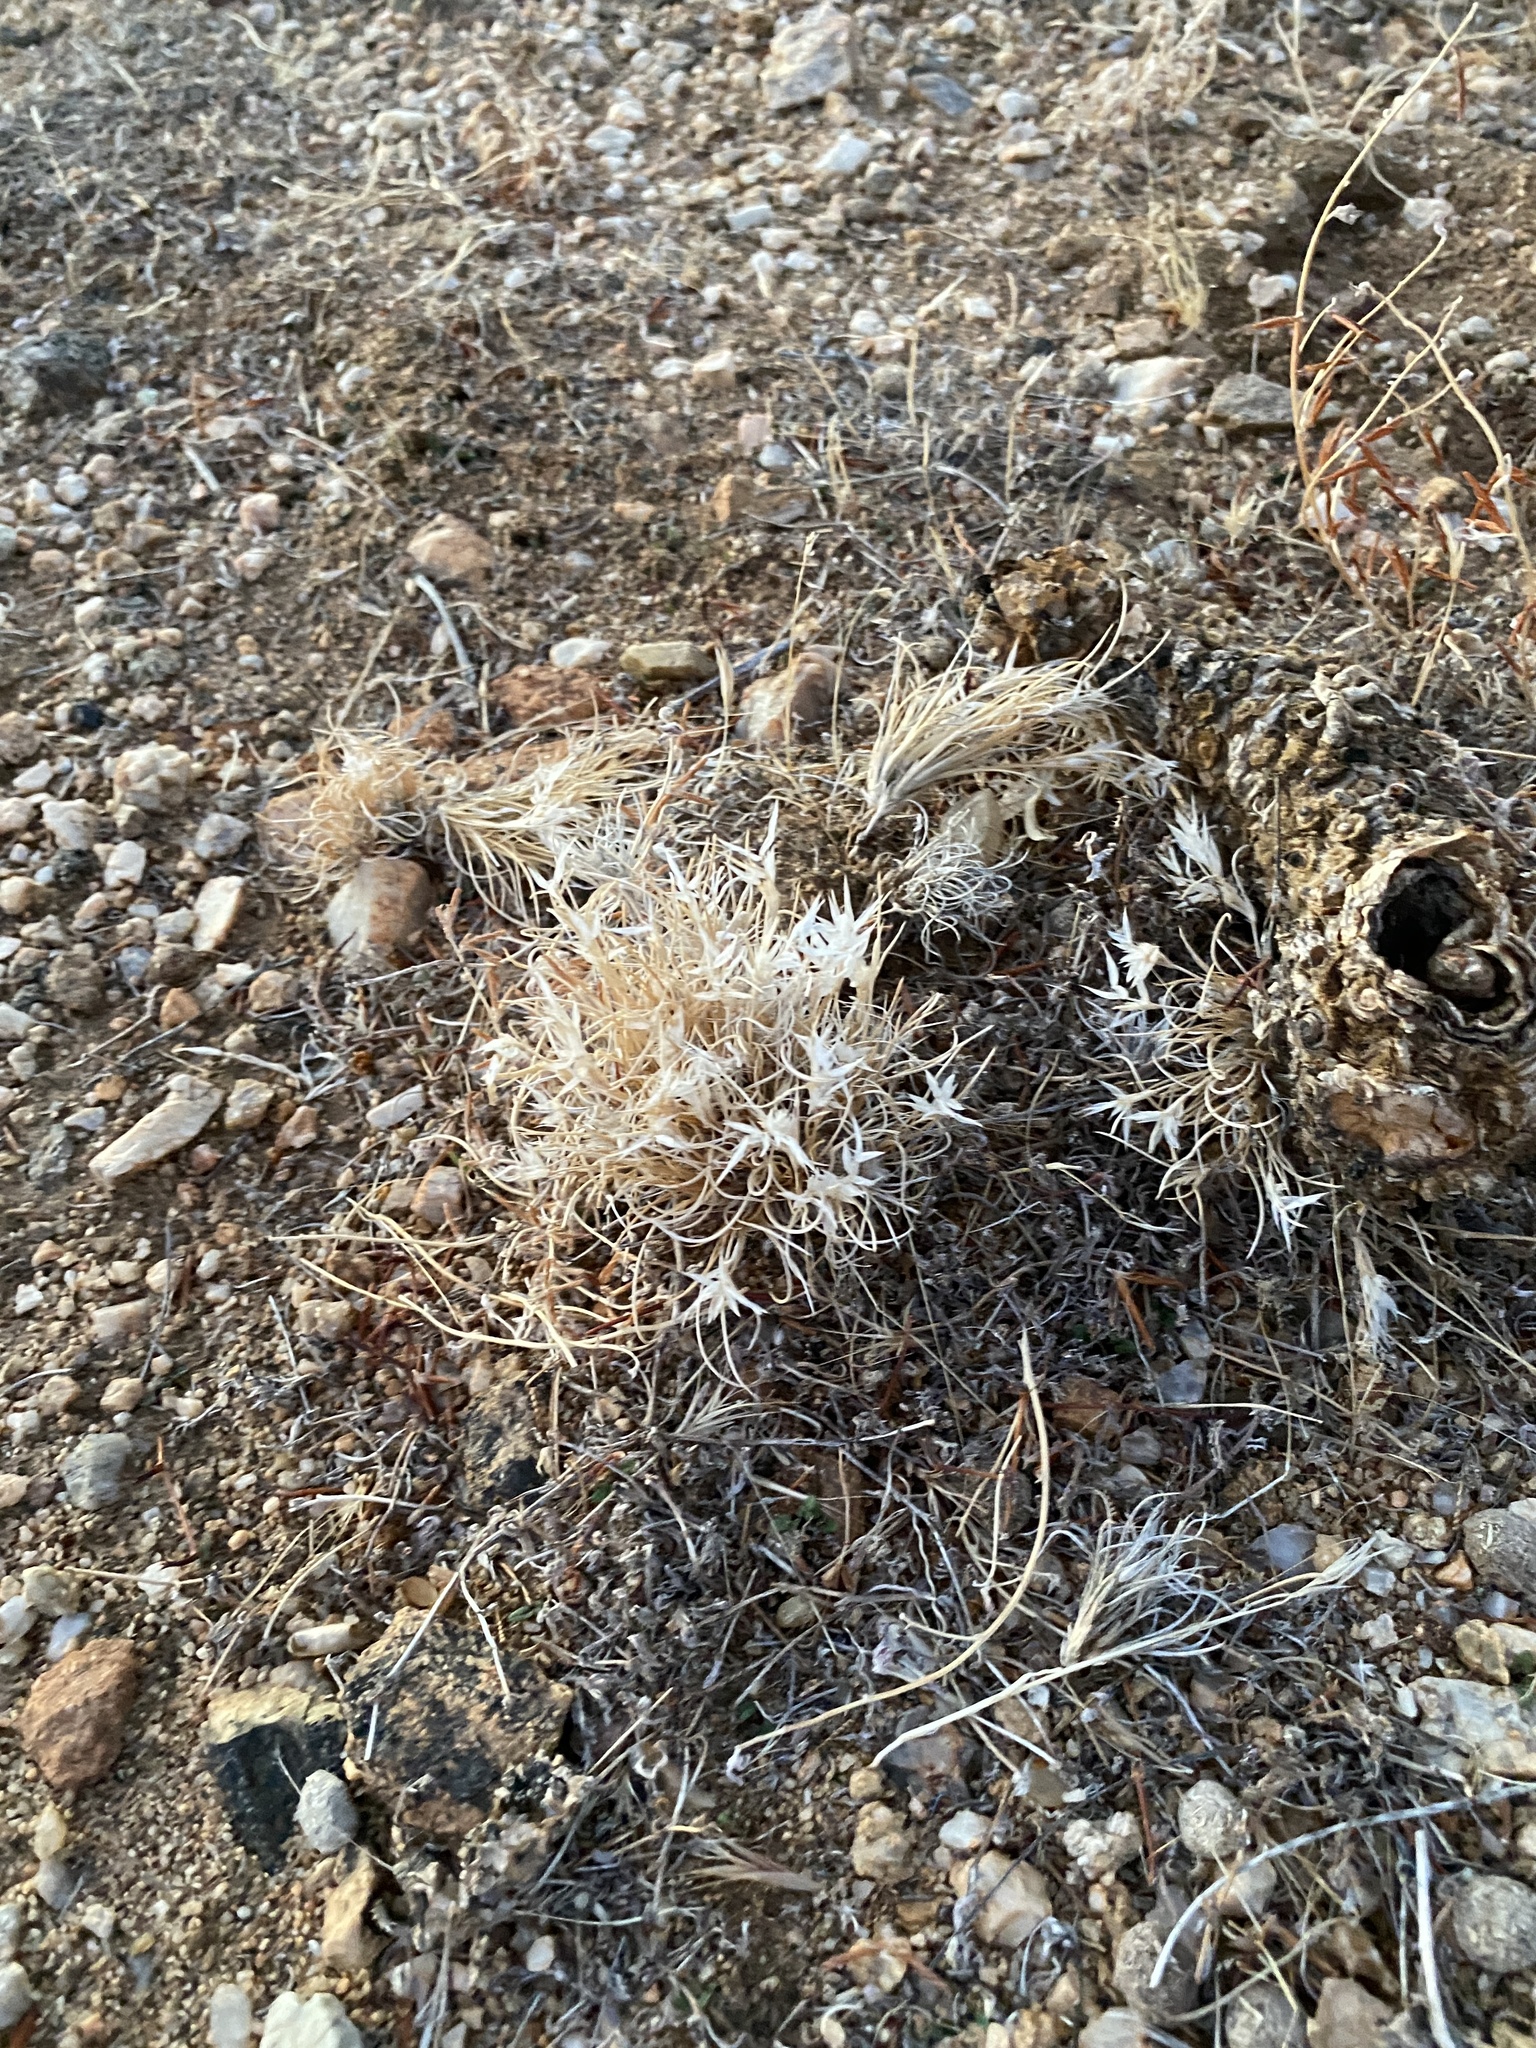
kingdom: Plantae
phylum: Tracheophyta
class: Liliopsida
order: Poales
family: Poaceae
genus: Dasyochloa
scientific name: Dasyochloa pulchella
